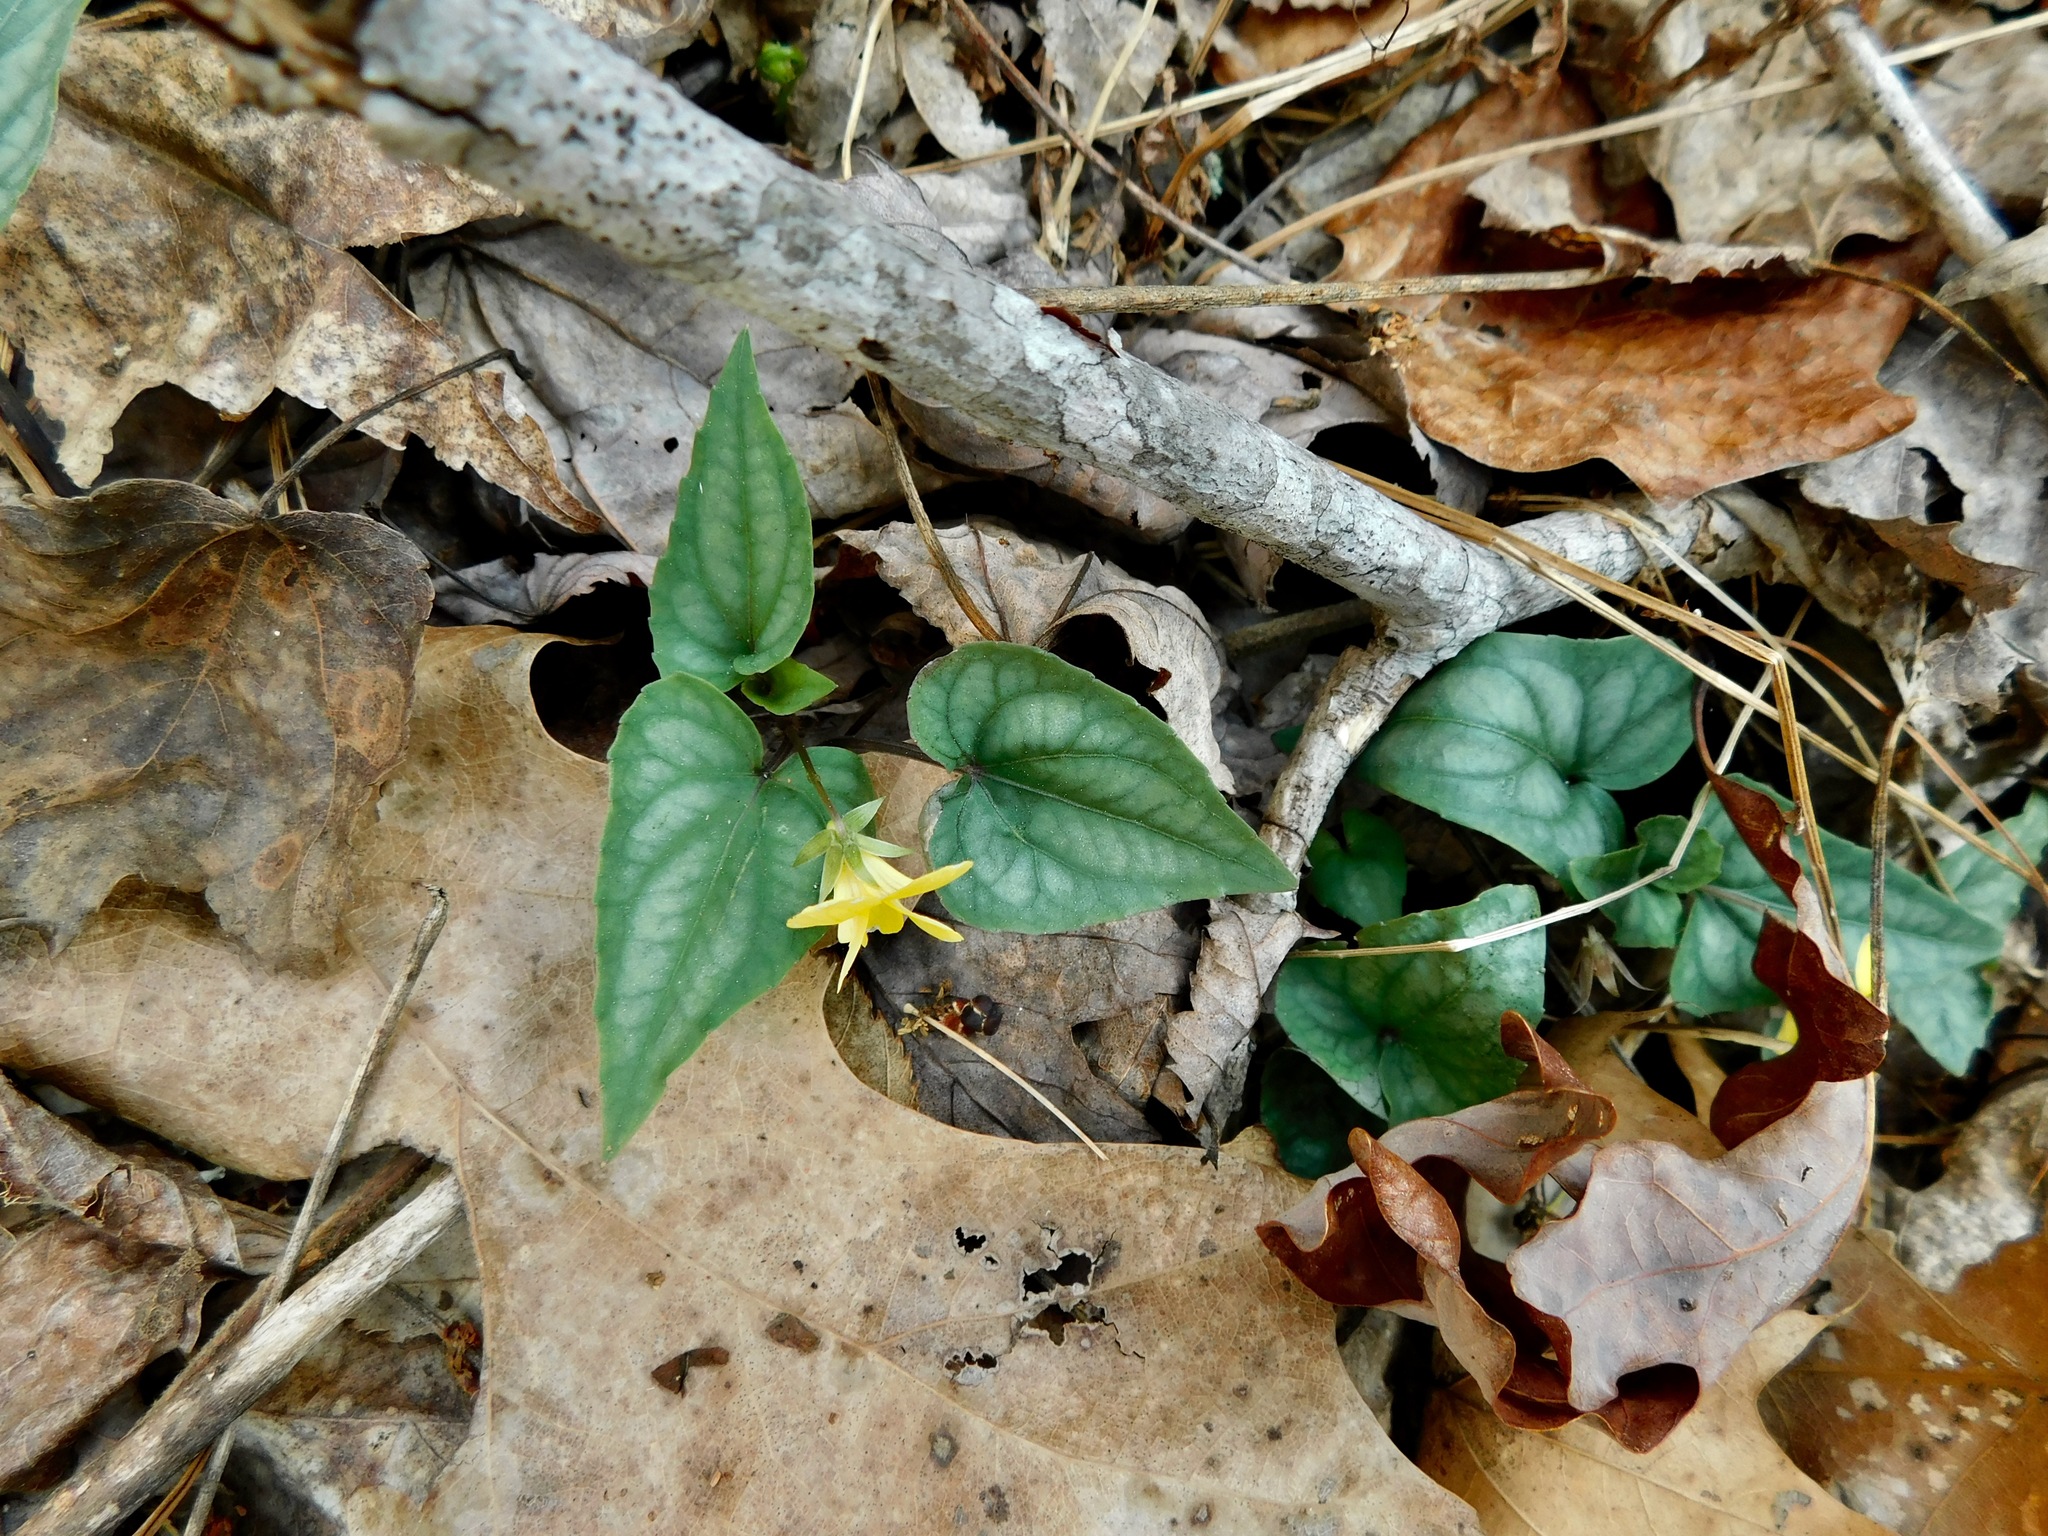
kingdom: Plantae
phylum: Tracheophyta
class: Magnoliopsida
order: Malpighiales
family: Violaceae
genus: Viola
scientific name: Viola hastata
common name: Spear-leaf violet
